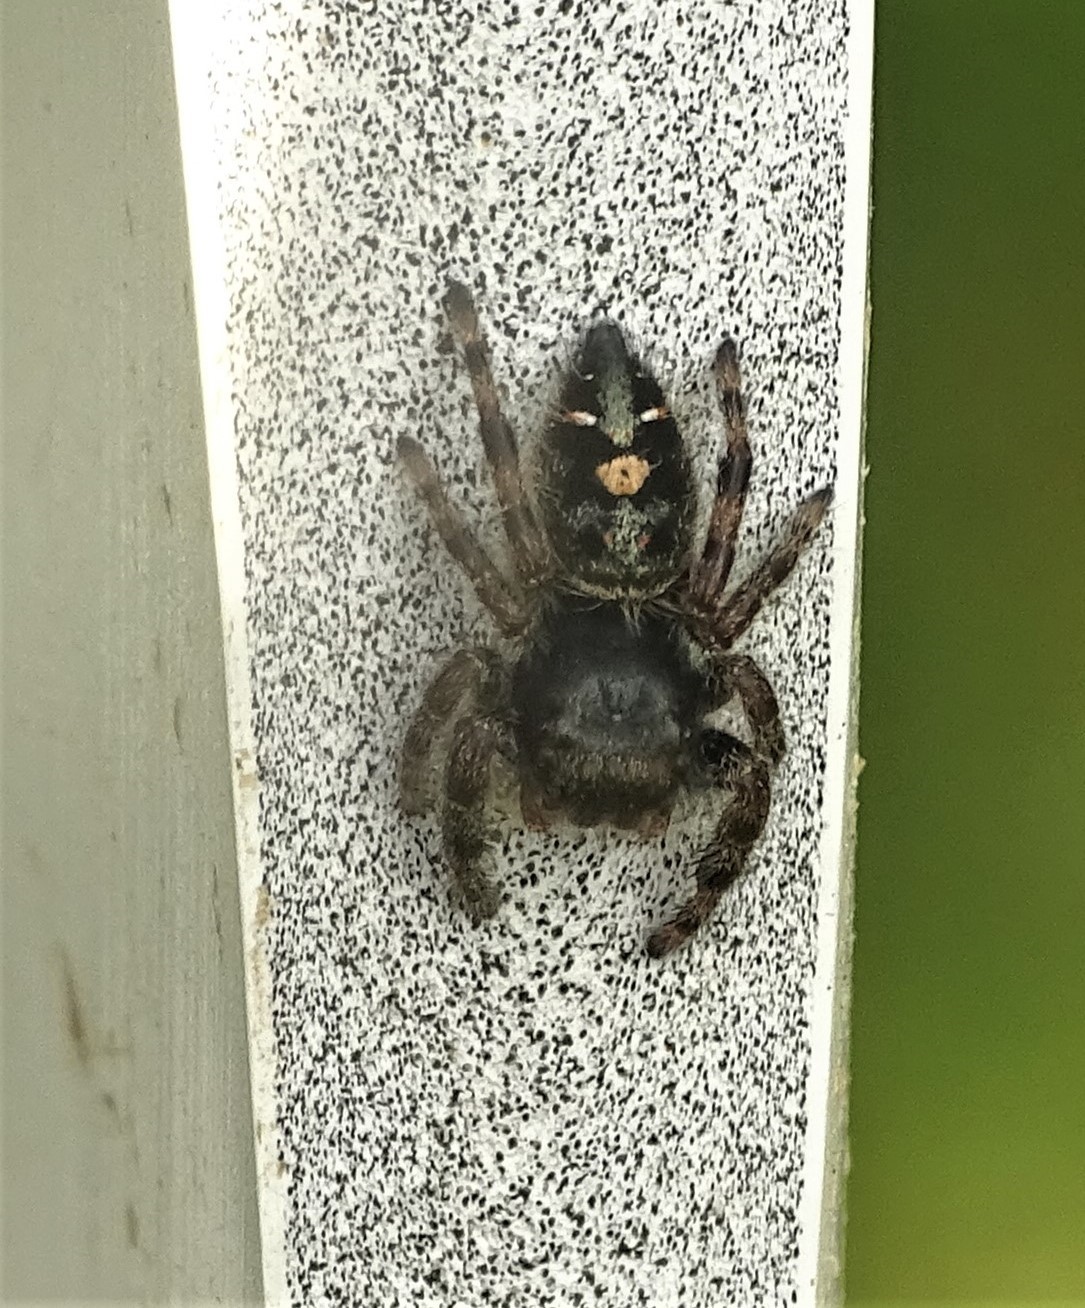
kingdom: Animalia
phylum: Arthropoda
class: Arachnida
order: Araneae
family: Salticidae
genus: Phidippus
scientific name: Phidippus audax
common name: Bold jumper
